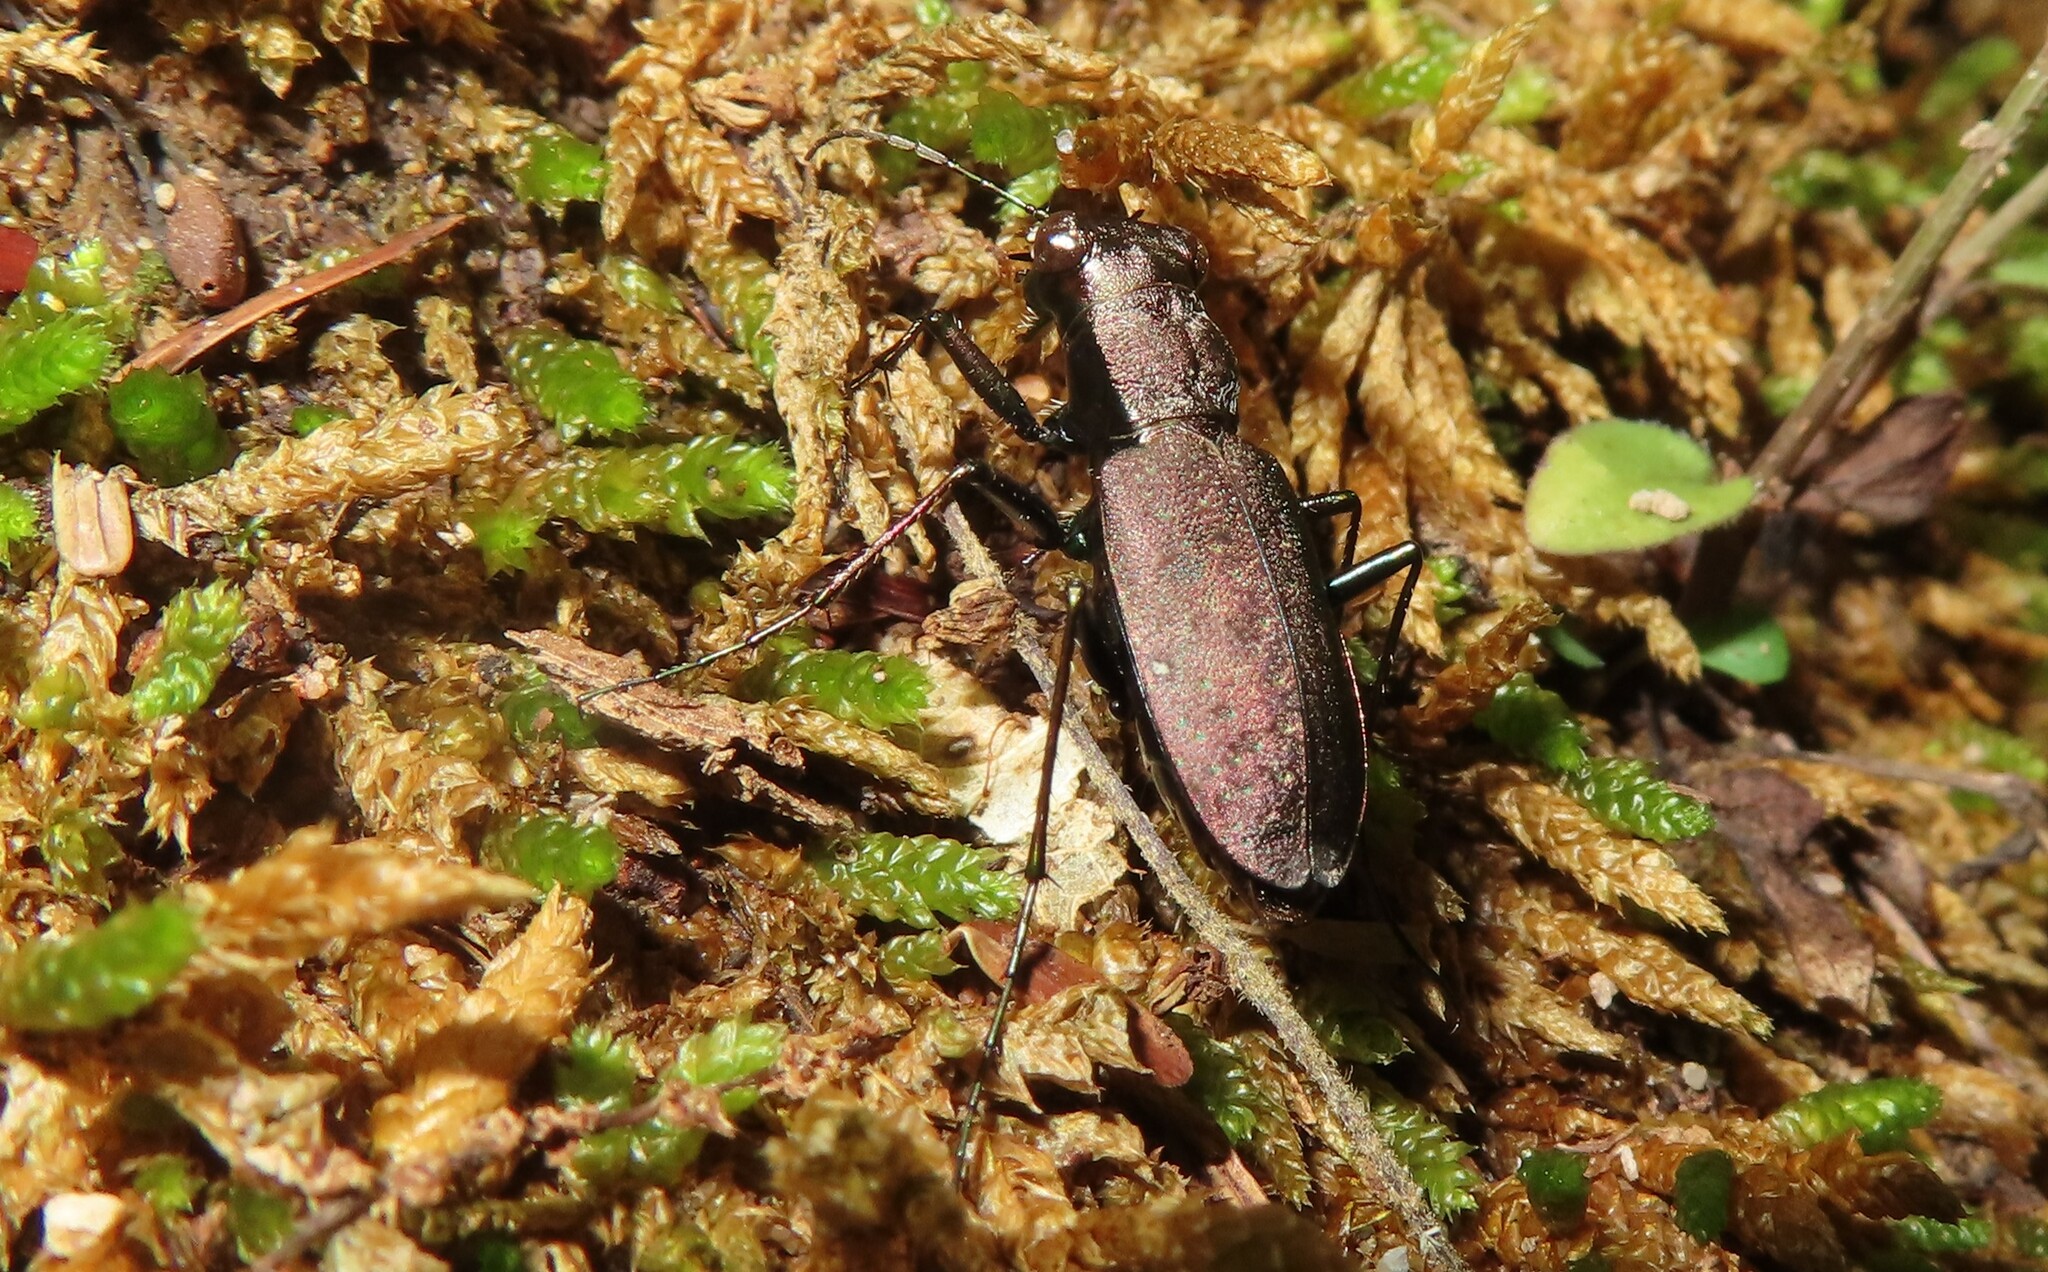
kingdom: Animalia
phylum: Arthropoda
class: Insecta
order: Coleoptera
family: Carabidae
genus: Cylindera
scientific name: Cylindera unipunctata
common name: One-spotted tiger beetle
